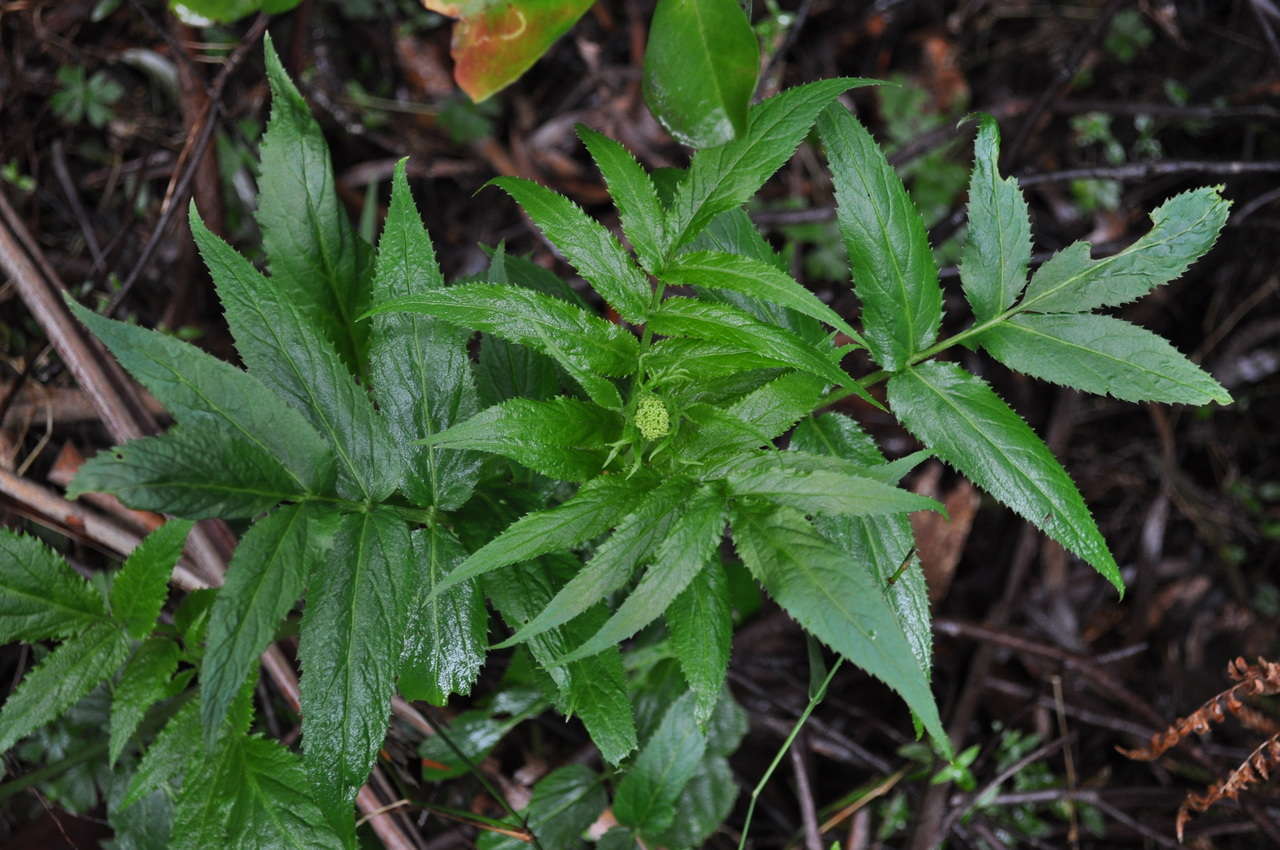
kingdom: Plantae
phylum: Tracheophyta
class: Magnoliopsida
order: Dipsacales
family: Viburnaceae
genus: Sambucus
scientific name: Sambucus gaudichaudiana
